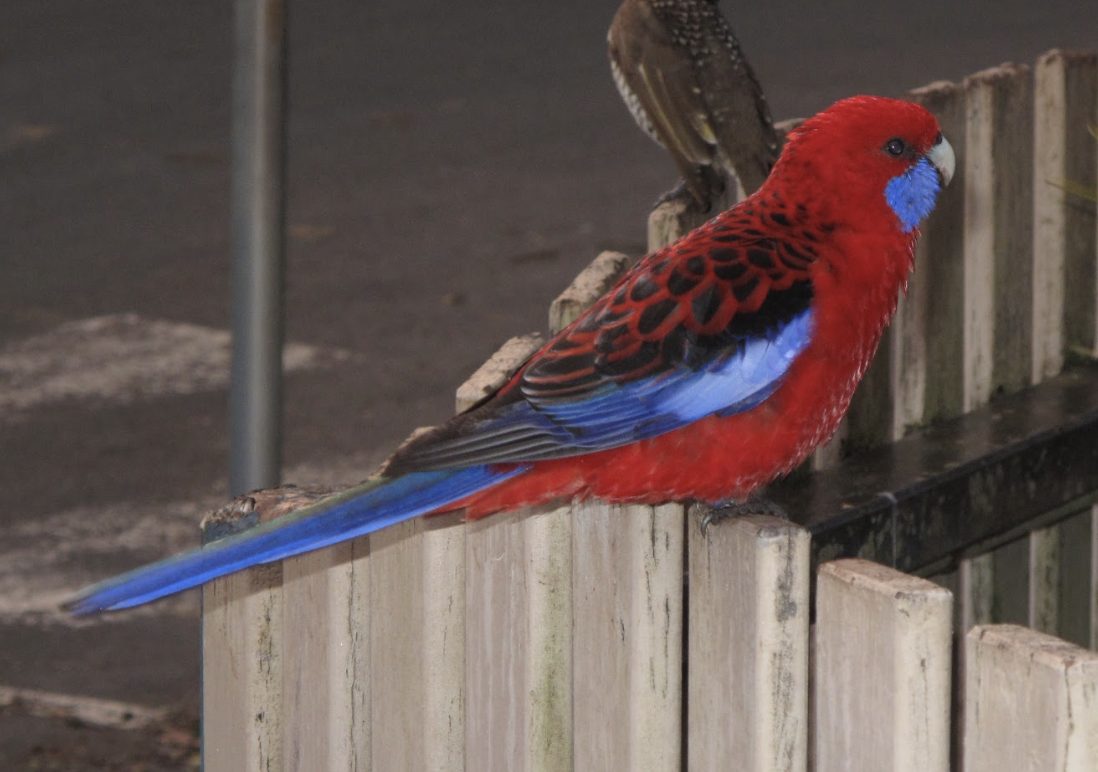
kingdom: Animalia
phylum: Chordata
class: Aves
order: Psittaciformes
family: Psittacidae
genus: Platycercus
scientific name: Platycercus elegans
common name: Crimson rosella
